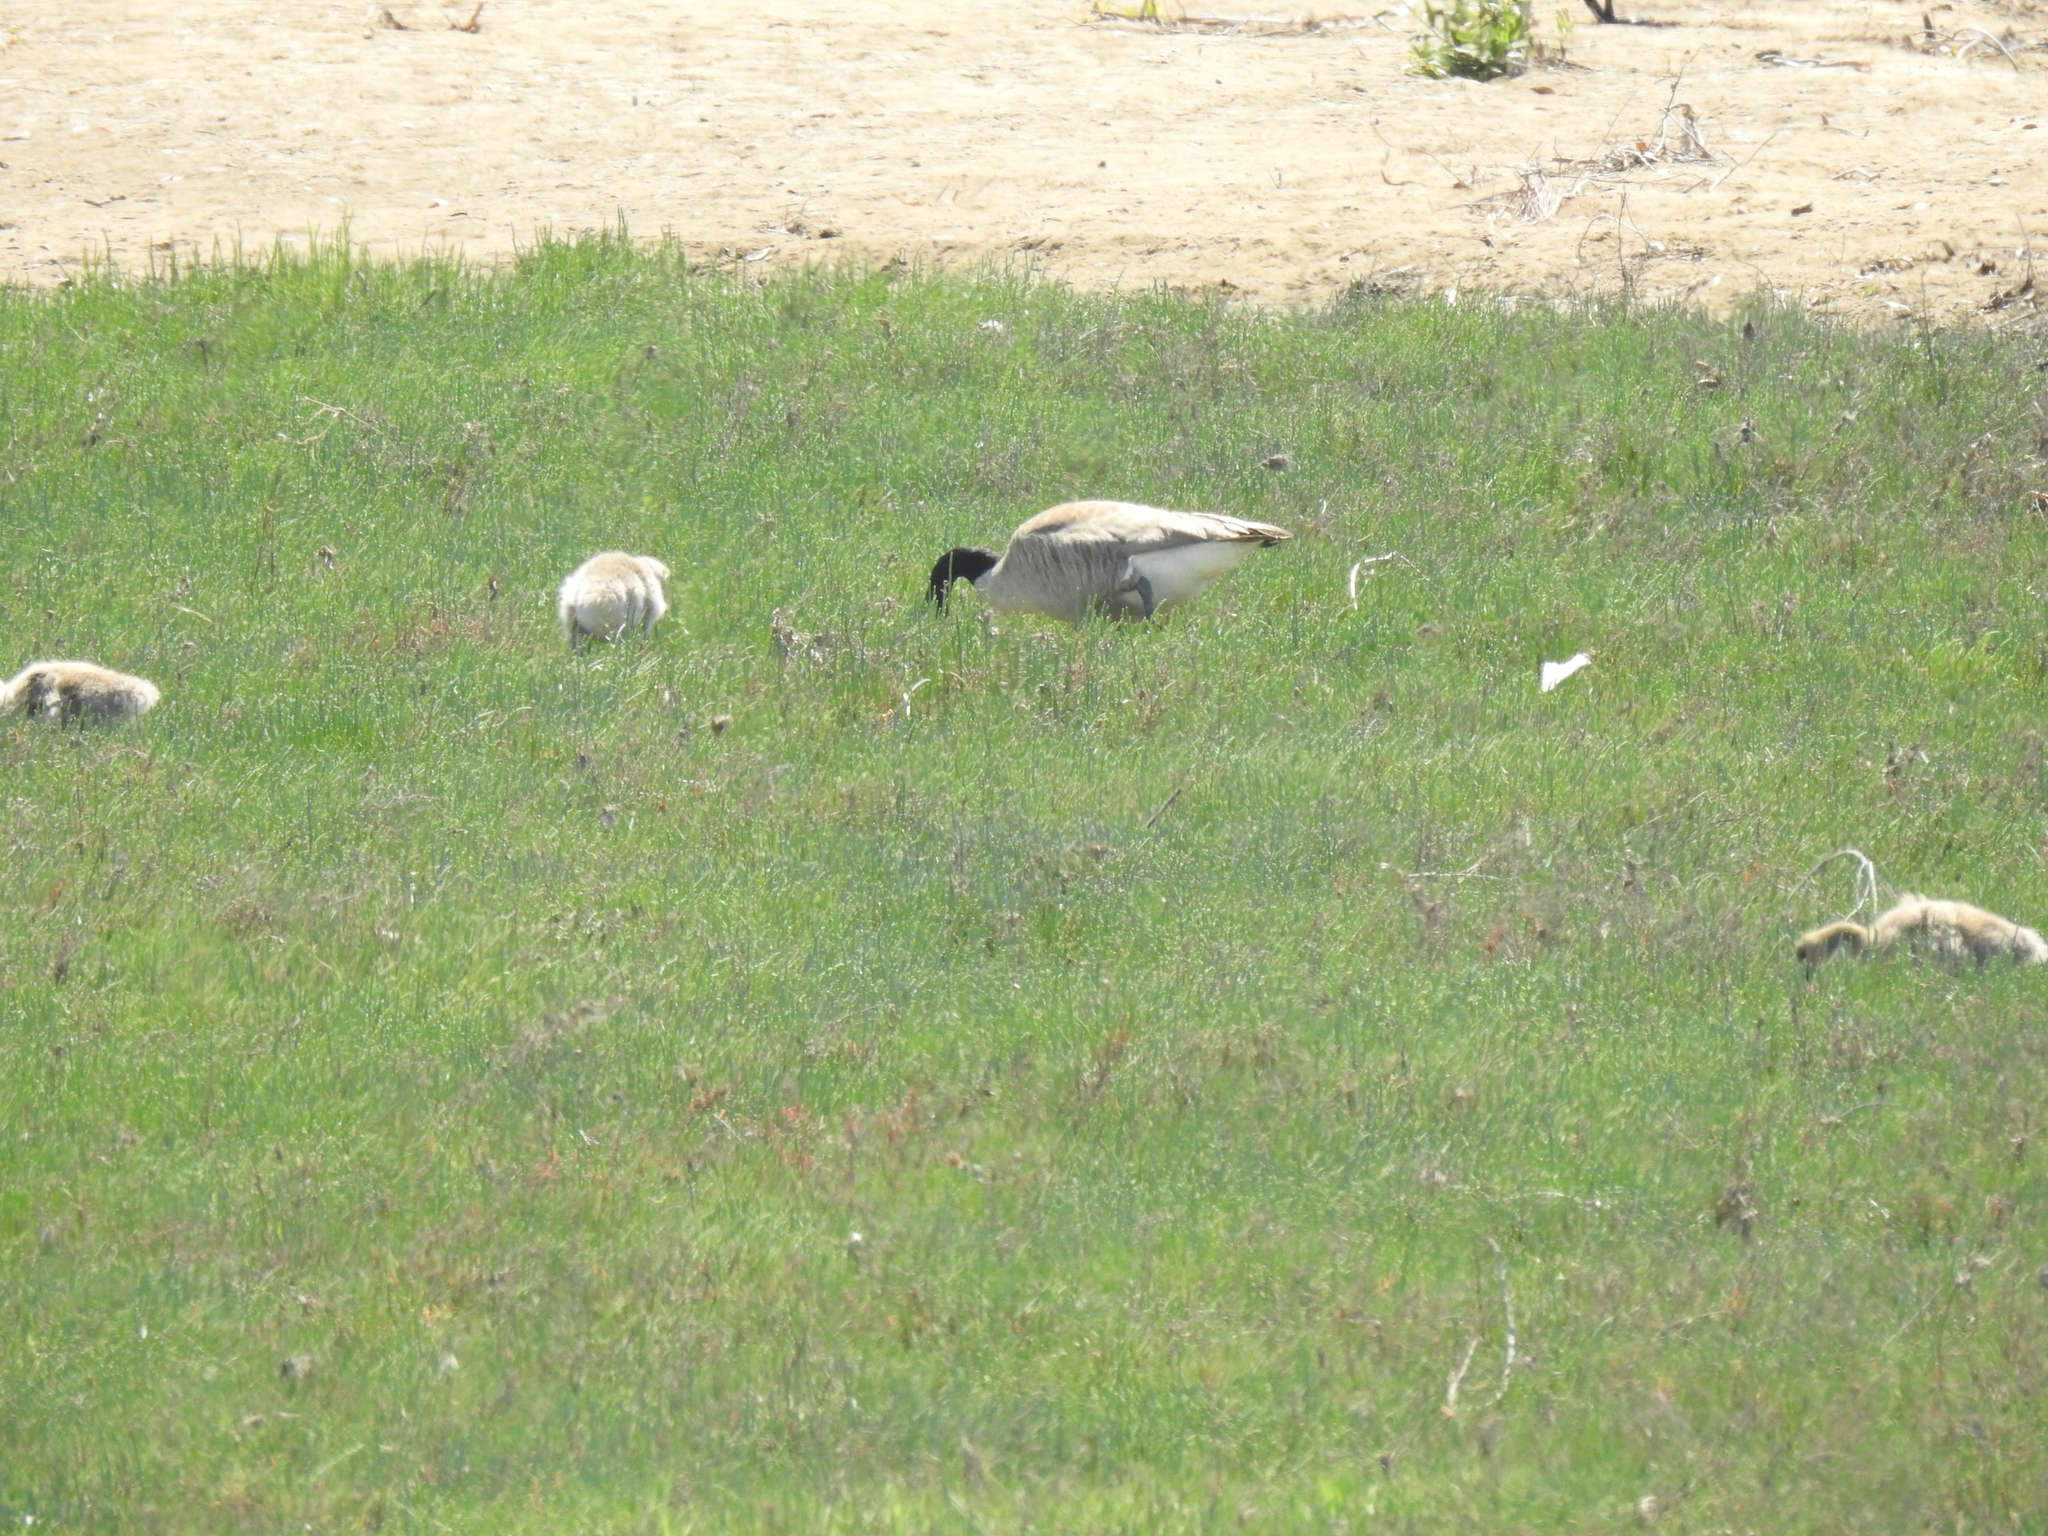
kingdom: Animalia
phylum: Chordata
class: Aves
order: Anseriformes
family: Anatidae
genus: Branta
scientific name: Branta canadensis
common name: Canada goose
